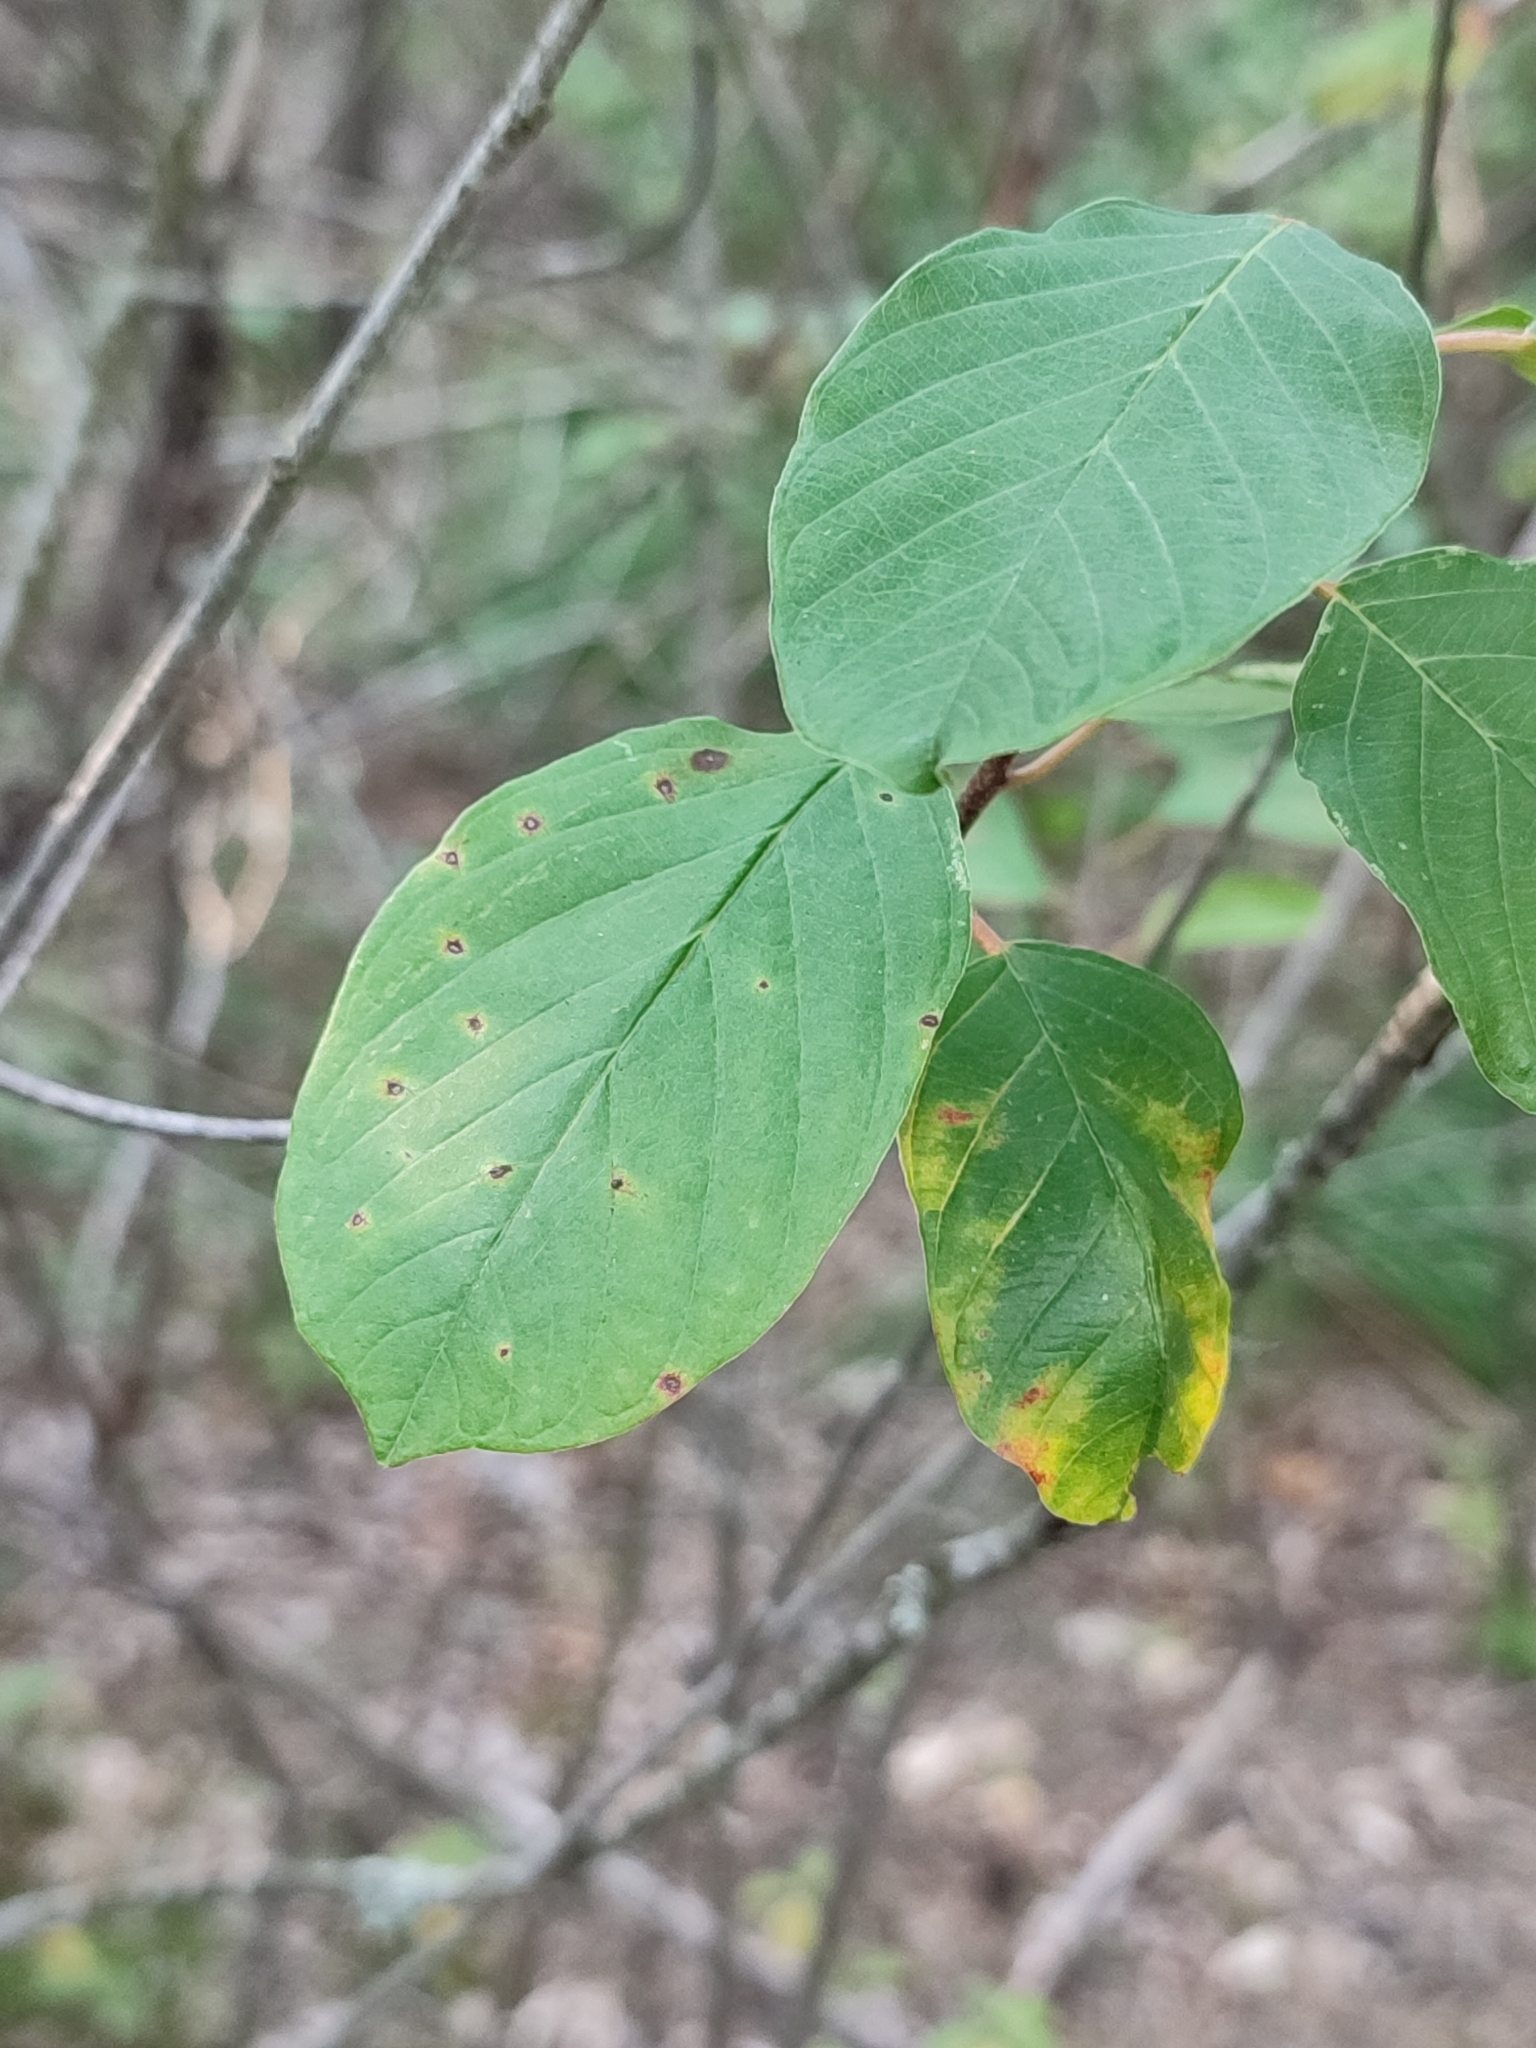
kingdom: Plantae
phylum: Tracheophyta
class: Magnoliopsida
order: Rosales
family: Rhamnaceae
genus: Frangula
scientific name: Frangula alnus
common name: Alder buckthorn
